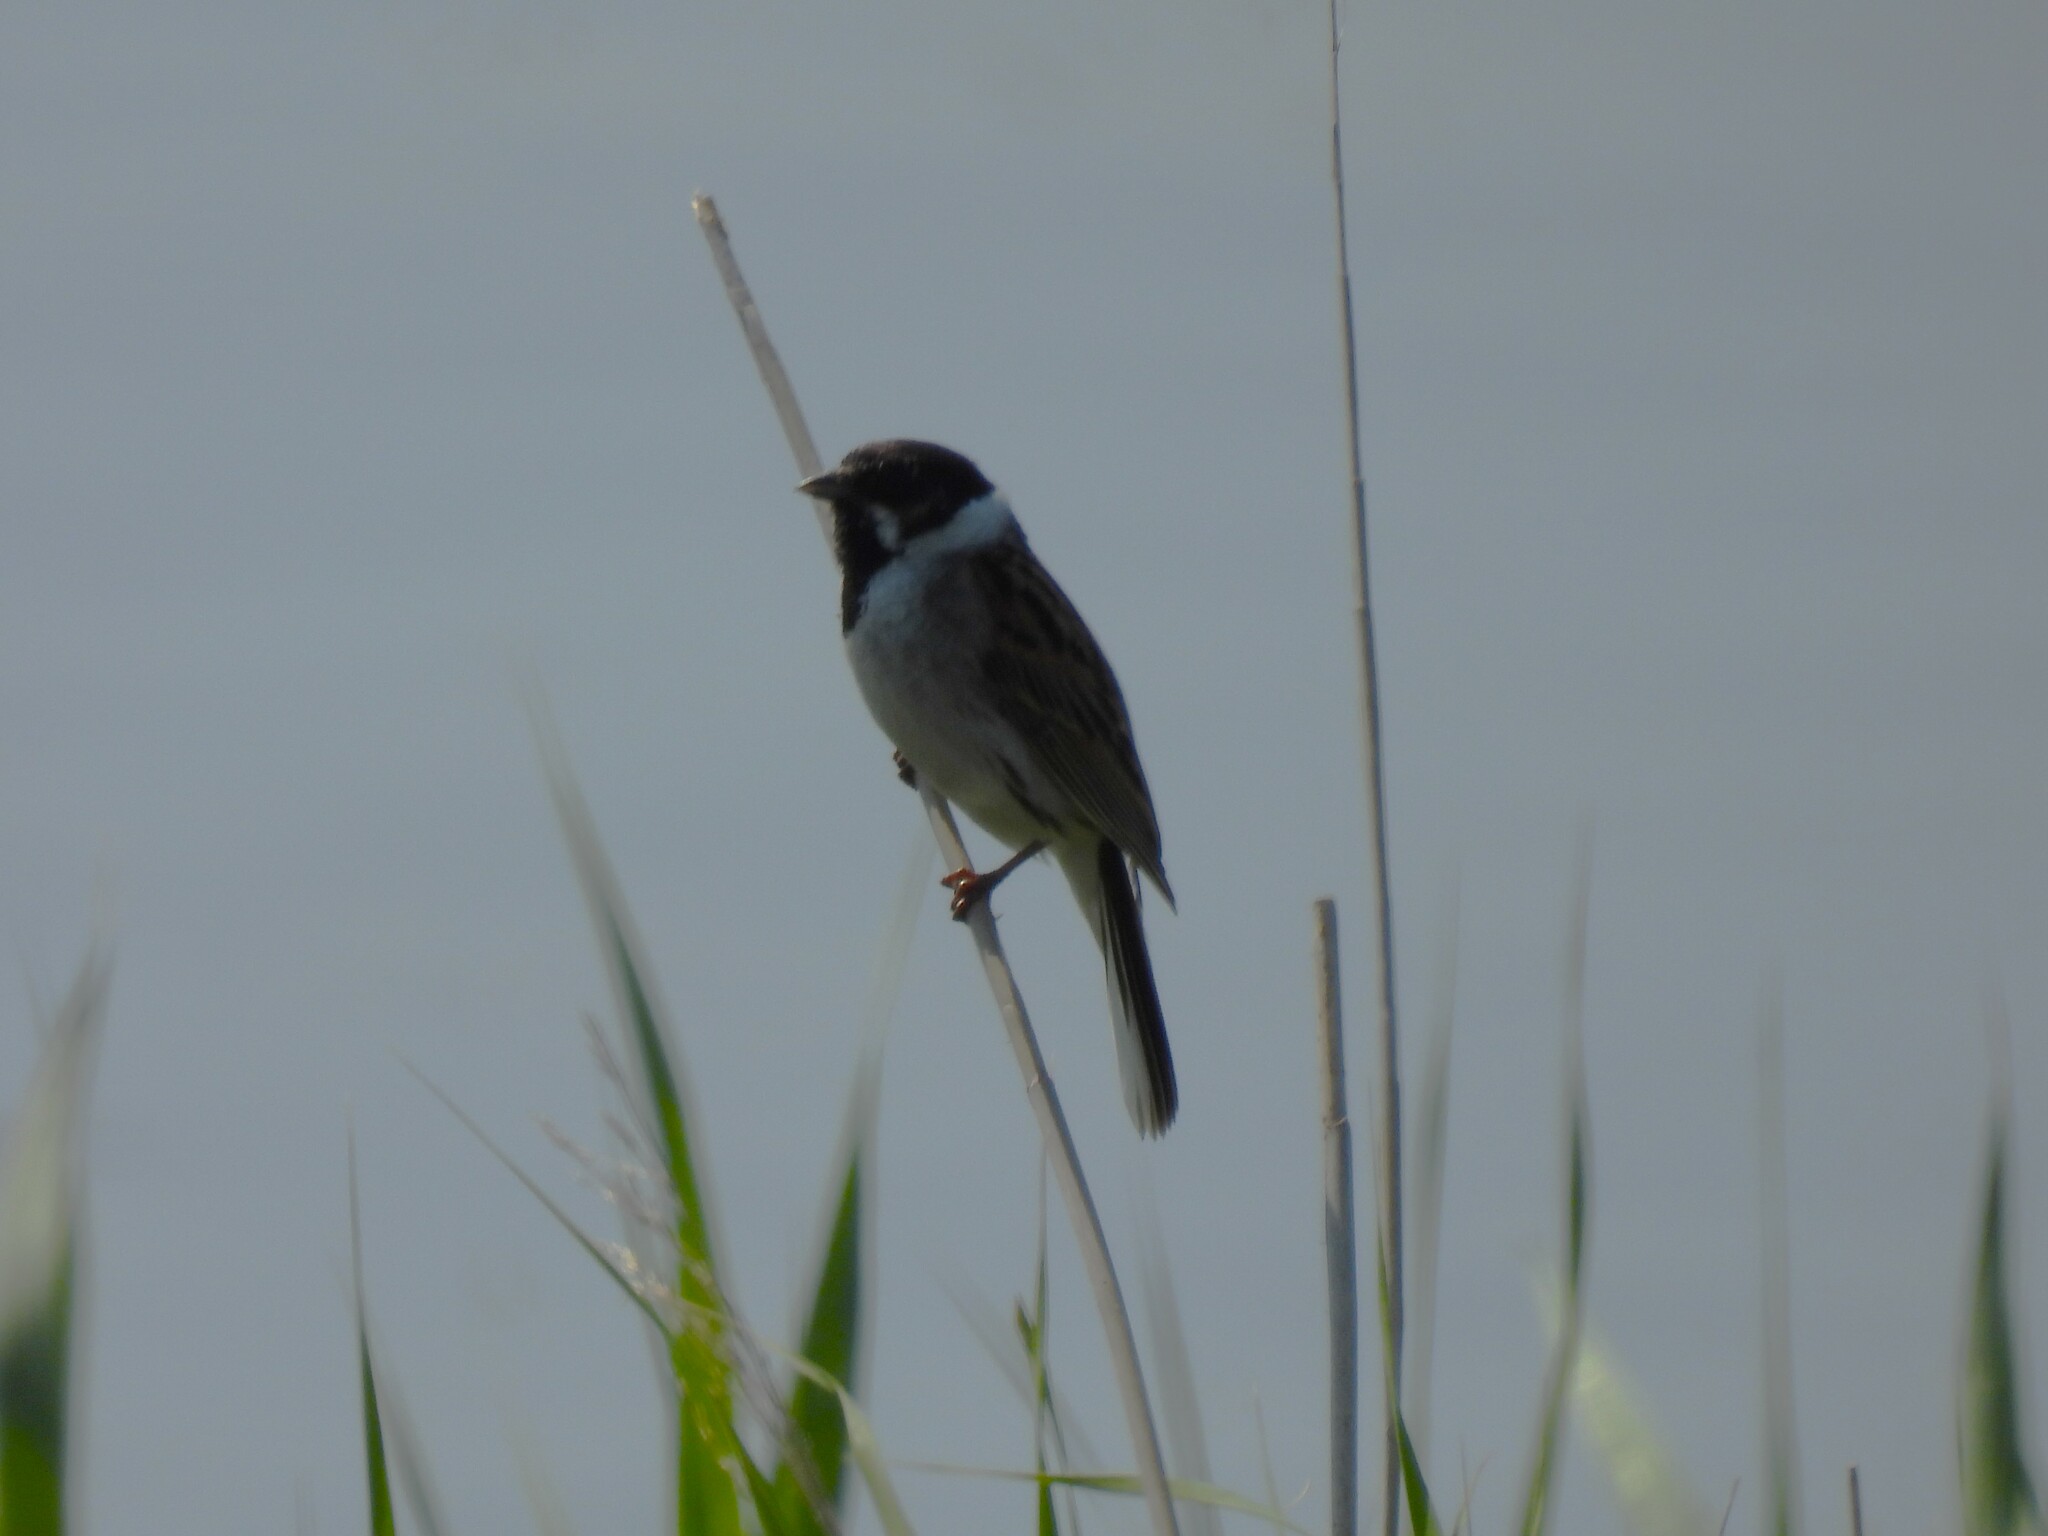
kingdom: Animalia
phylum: Chordata
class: Aves
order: Passeriformes
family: Emberizidae
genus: Emberiza
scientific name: Emberiza schoeniclus
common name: Reed bunting
